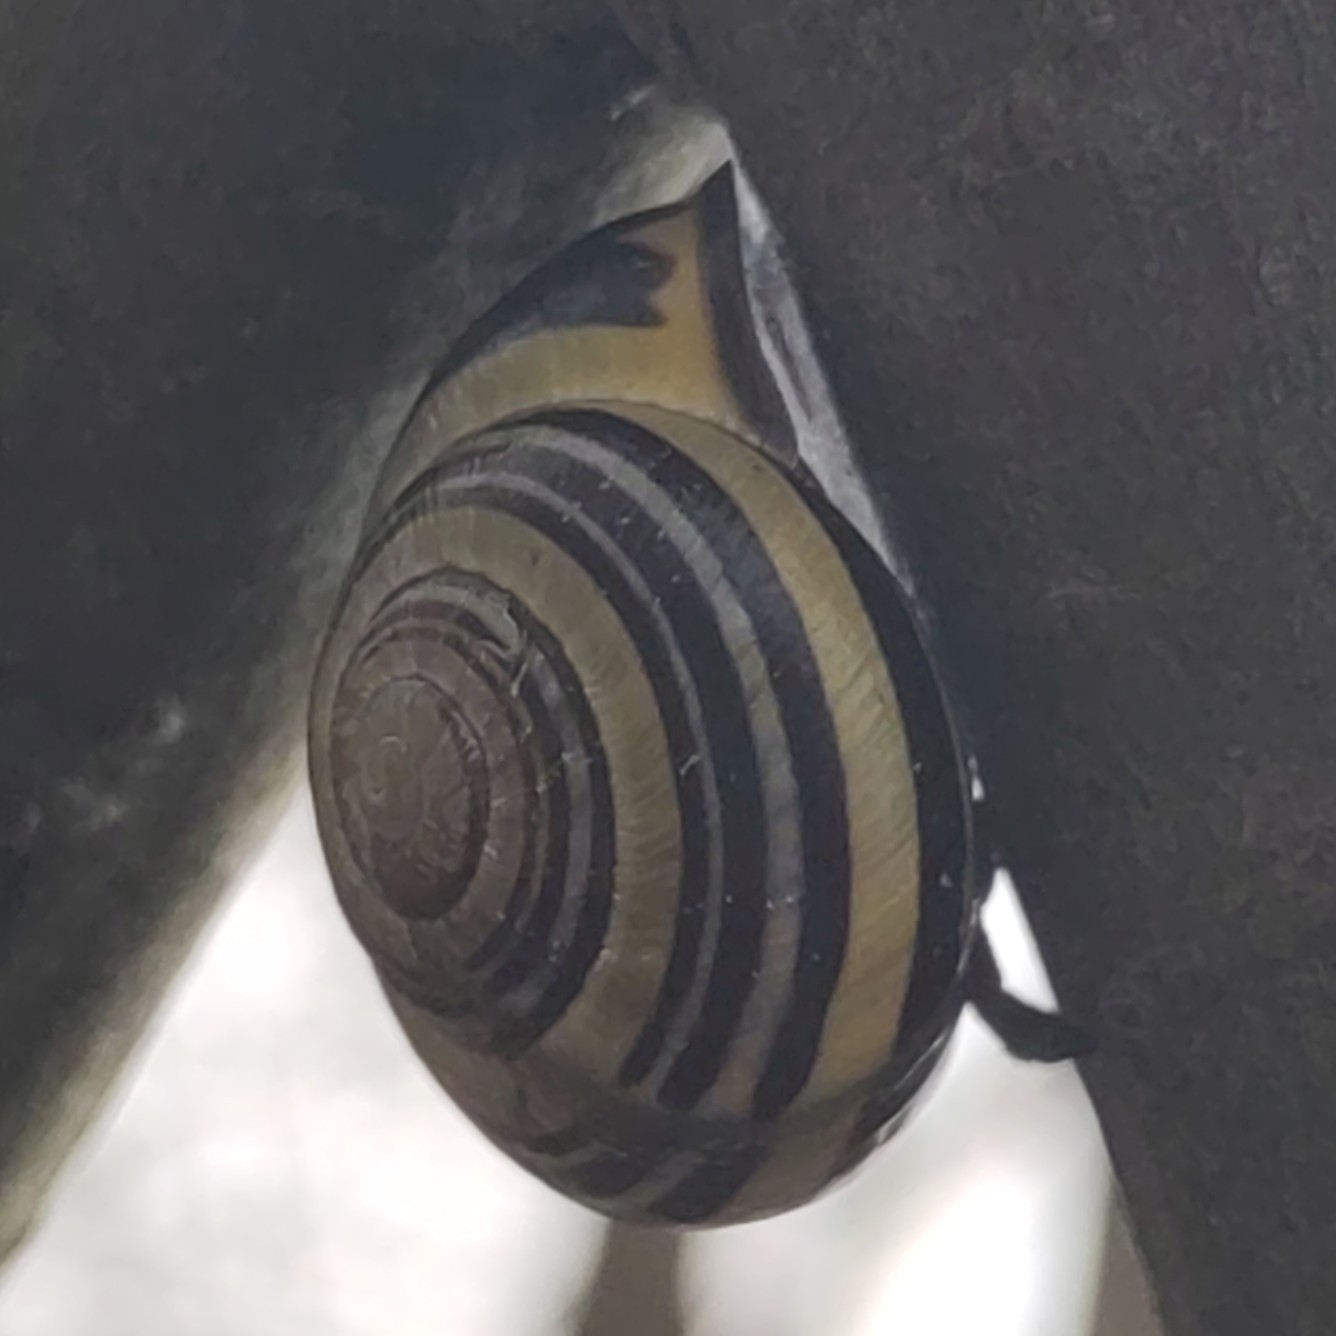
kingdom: Animalia
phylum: Mollusca
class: Gastropoda
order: Stylommatophora
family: Helicidae
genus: Cepaea
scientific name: Cepaea nemoralis
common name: Grovesnail
